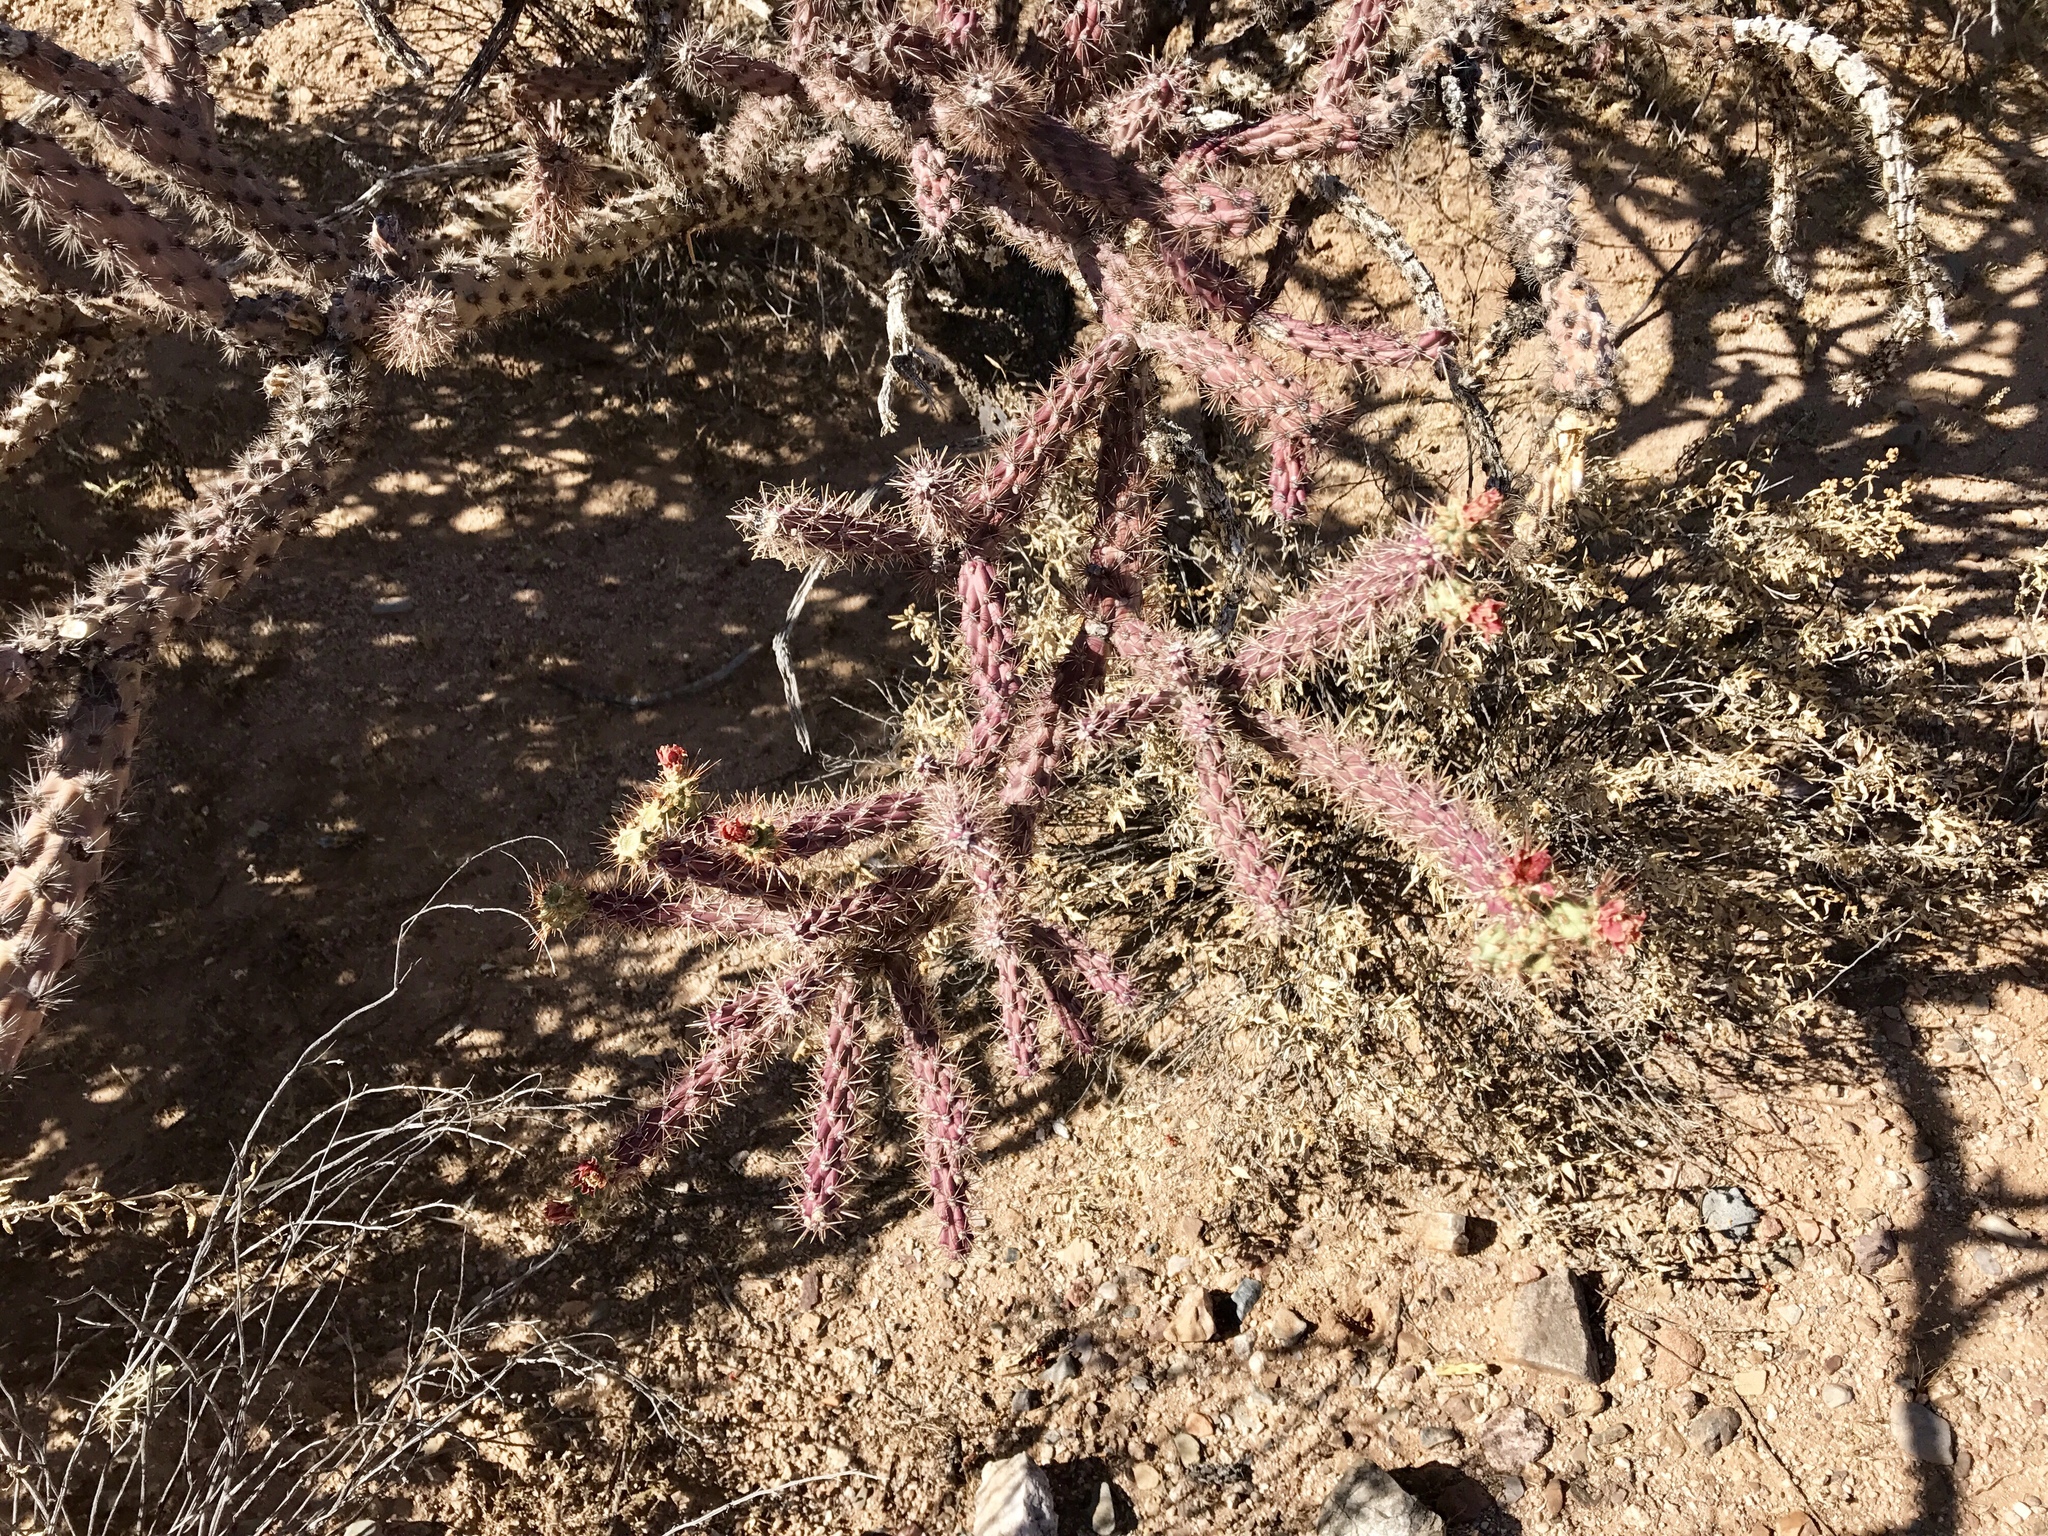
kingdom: Plantae
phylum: Tracheophyta
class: Magnoliopsida
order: Caryophyllales
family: Cactaceae
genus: Cylindropuntia
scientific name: Cylindropuntia thurberi
